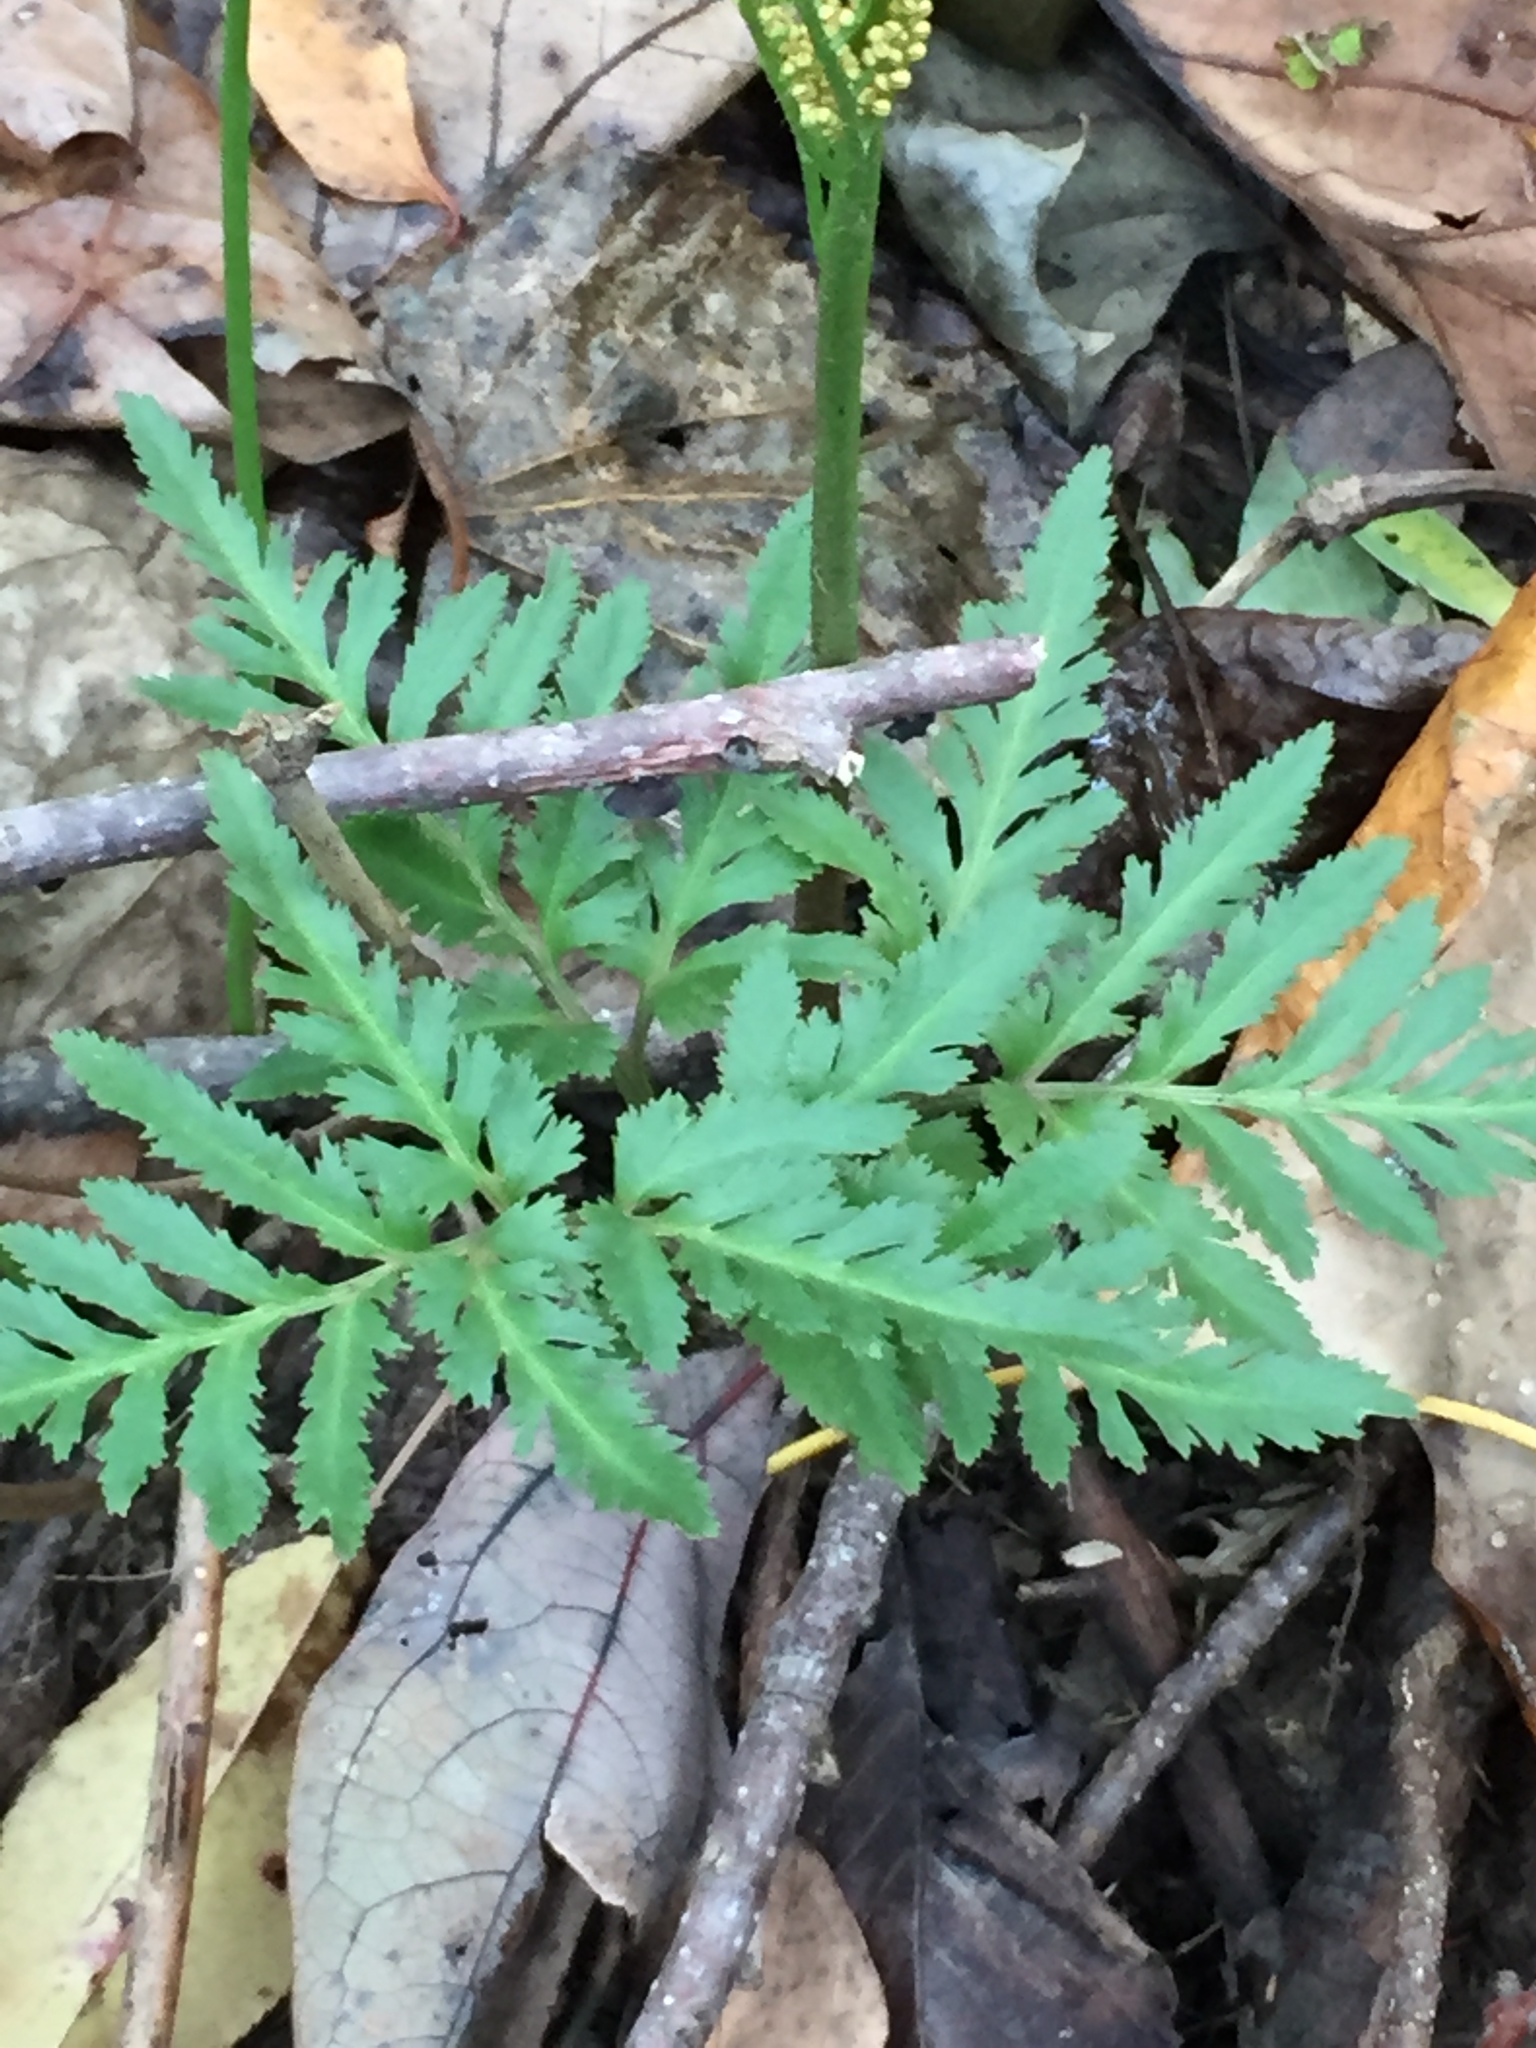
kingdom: Plantae
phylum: Tracheophyta
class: Polypodiopsida
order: Ophioglossales
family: Ophioglossaceae
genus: Sceptridium
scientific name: Sceptridium dissectum
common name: Cut-leaved grapefern
